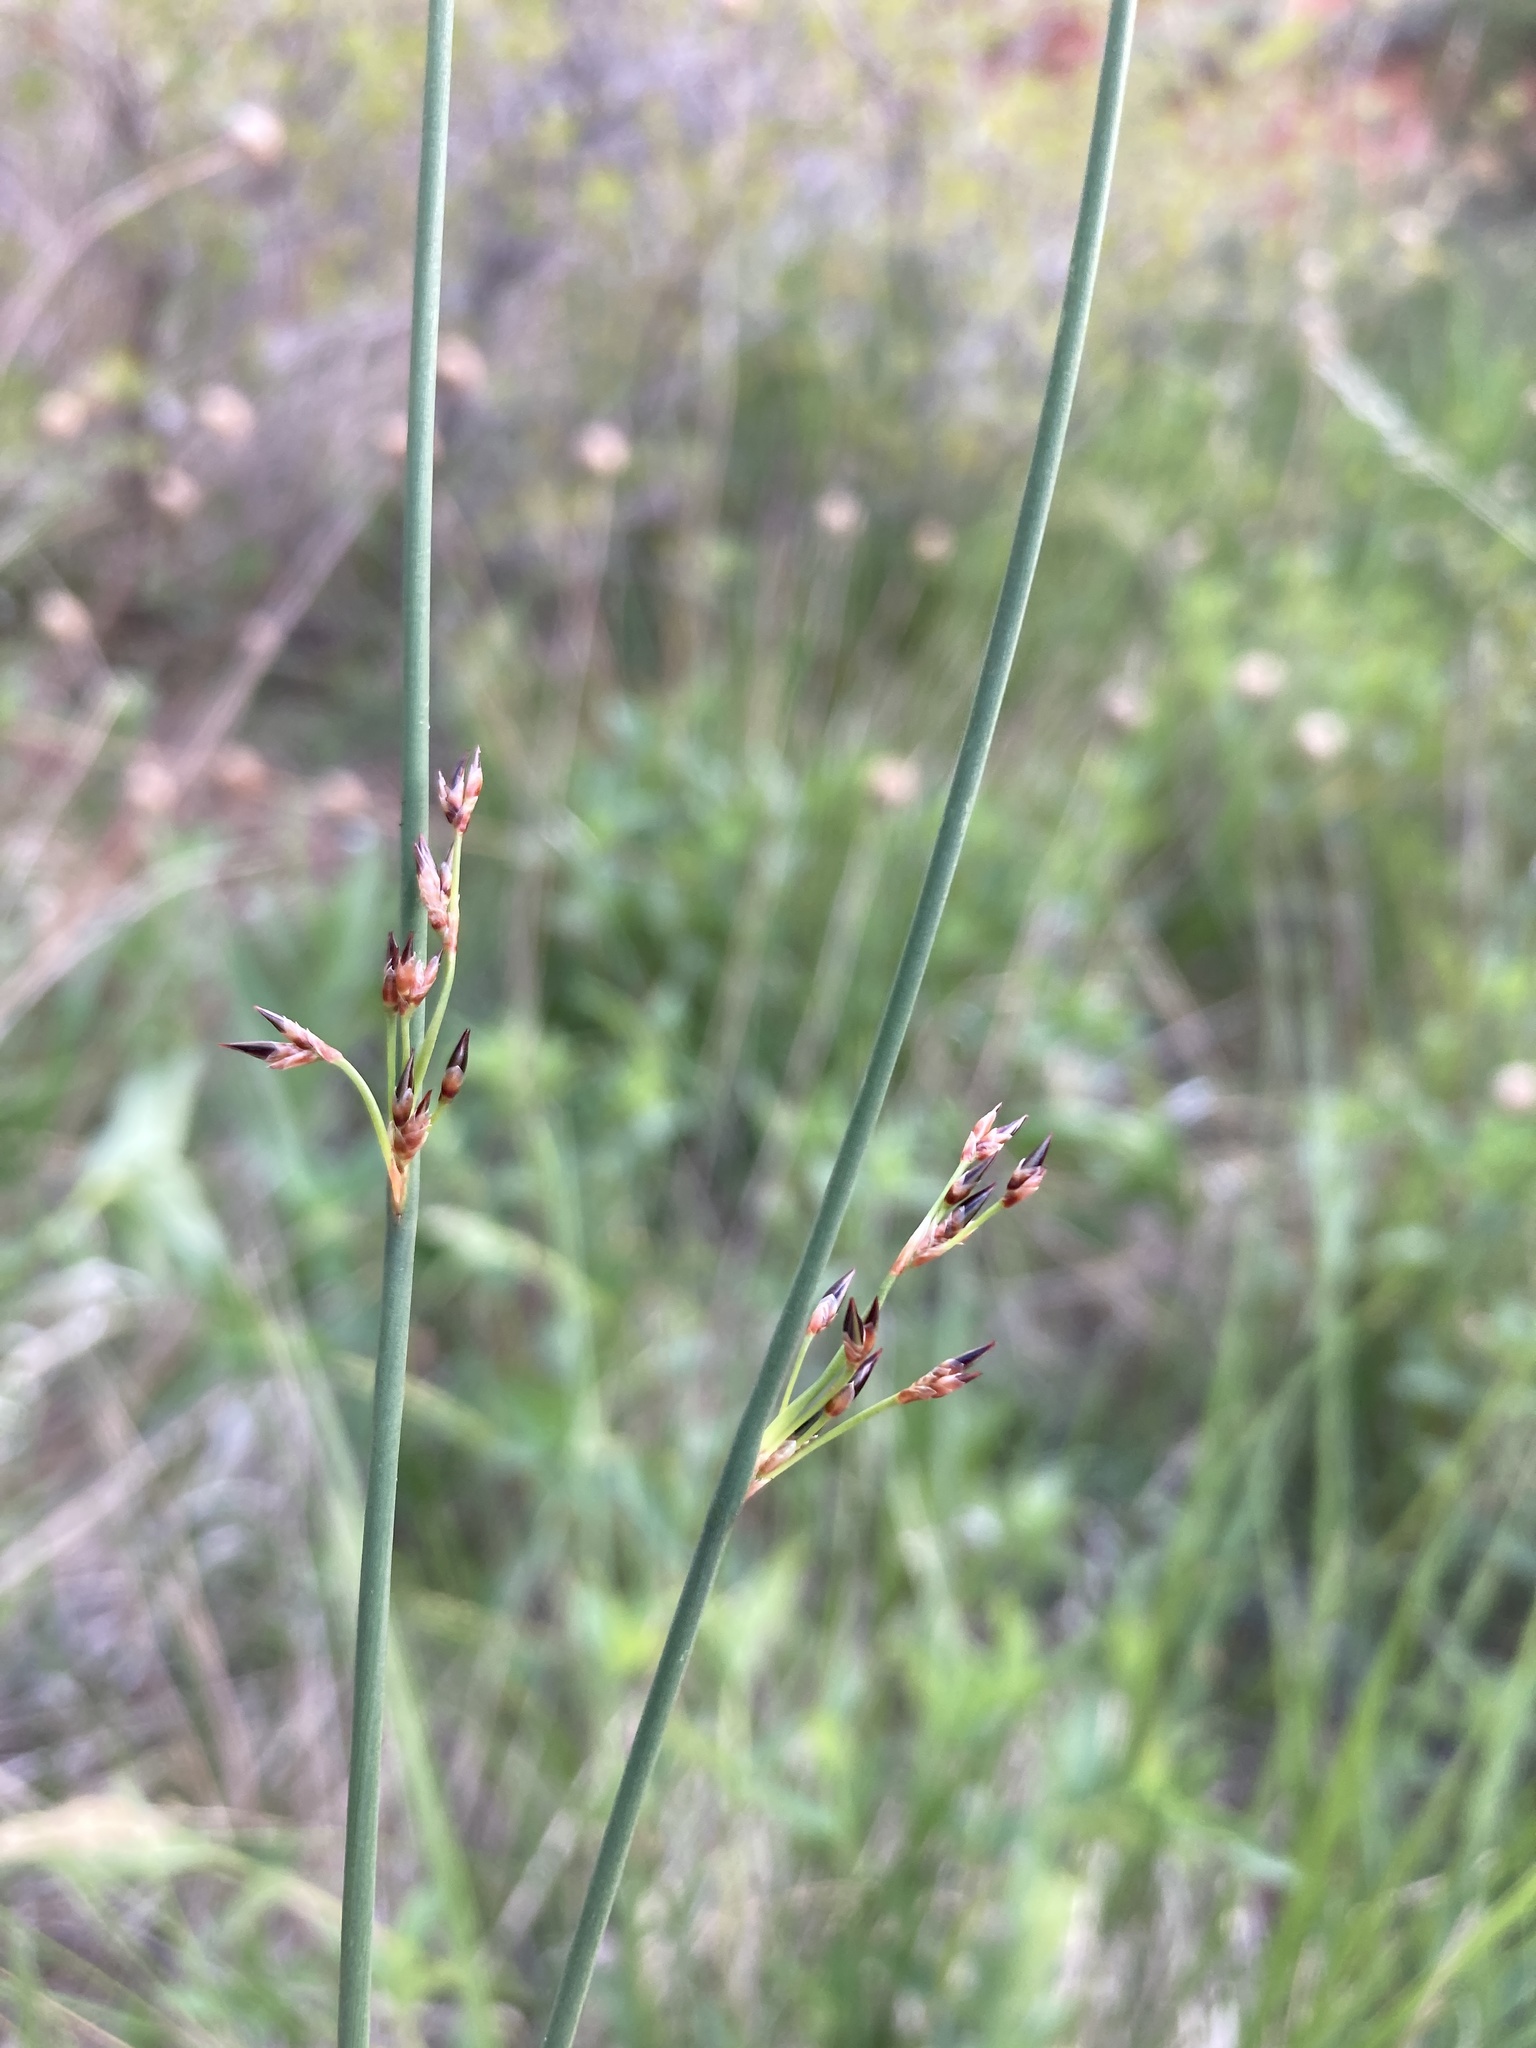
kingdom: Plantae
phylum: Tracheophyta
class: Liliopsida
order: Poales
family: Juncaceae
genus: Juncus
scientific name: Juncus balticus
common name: Baltic rush
